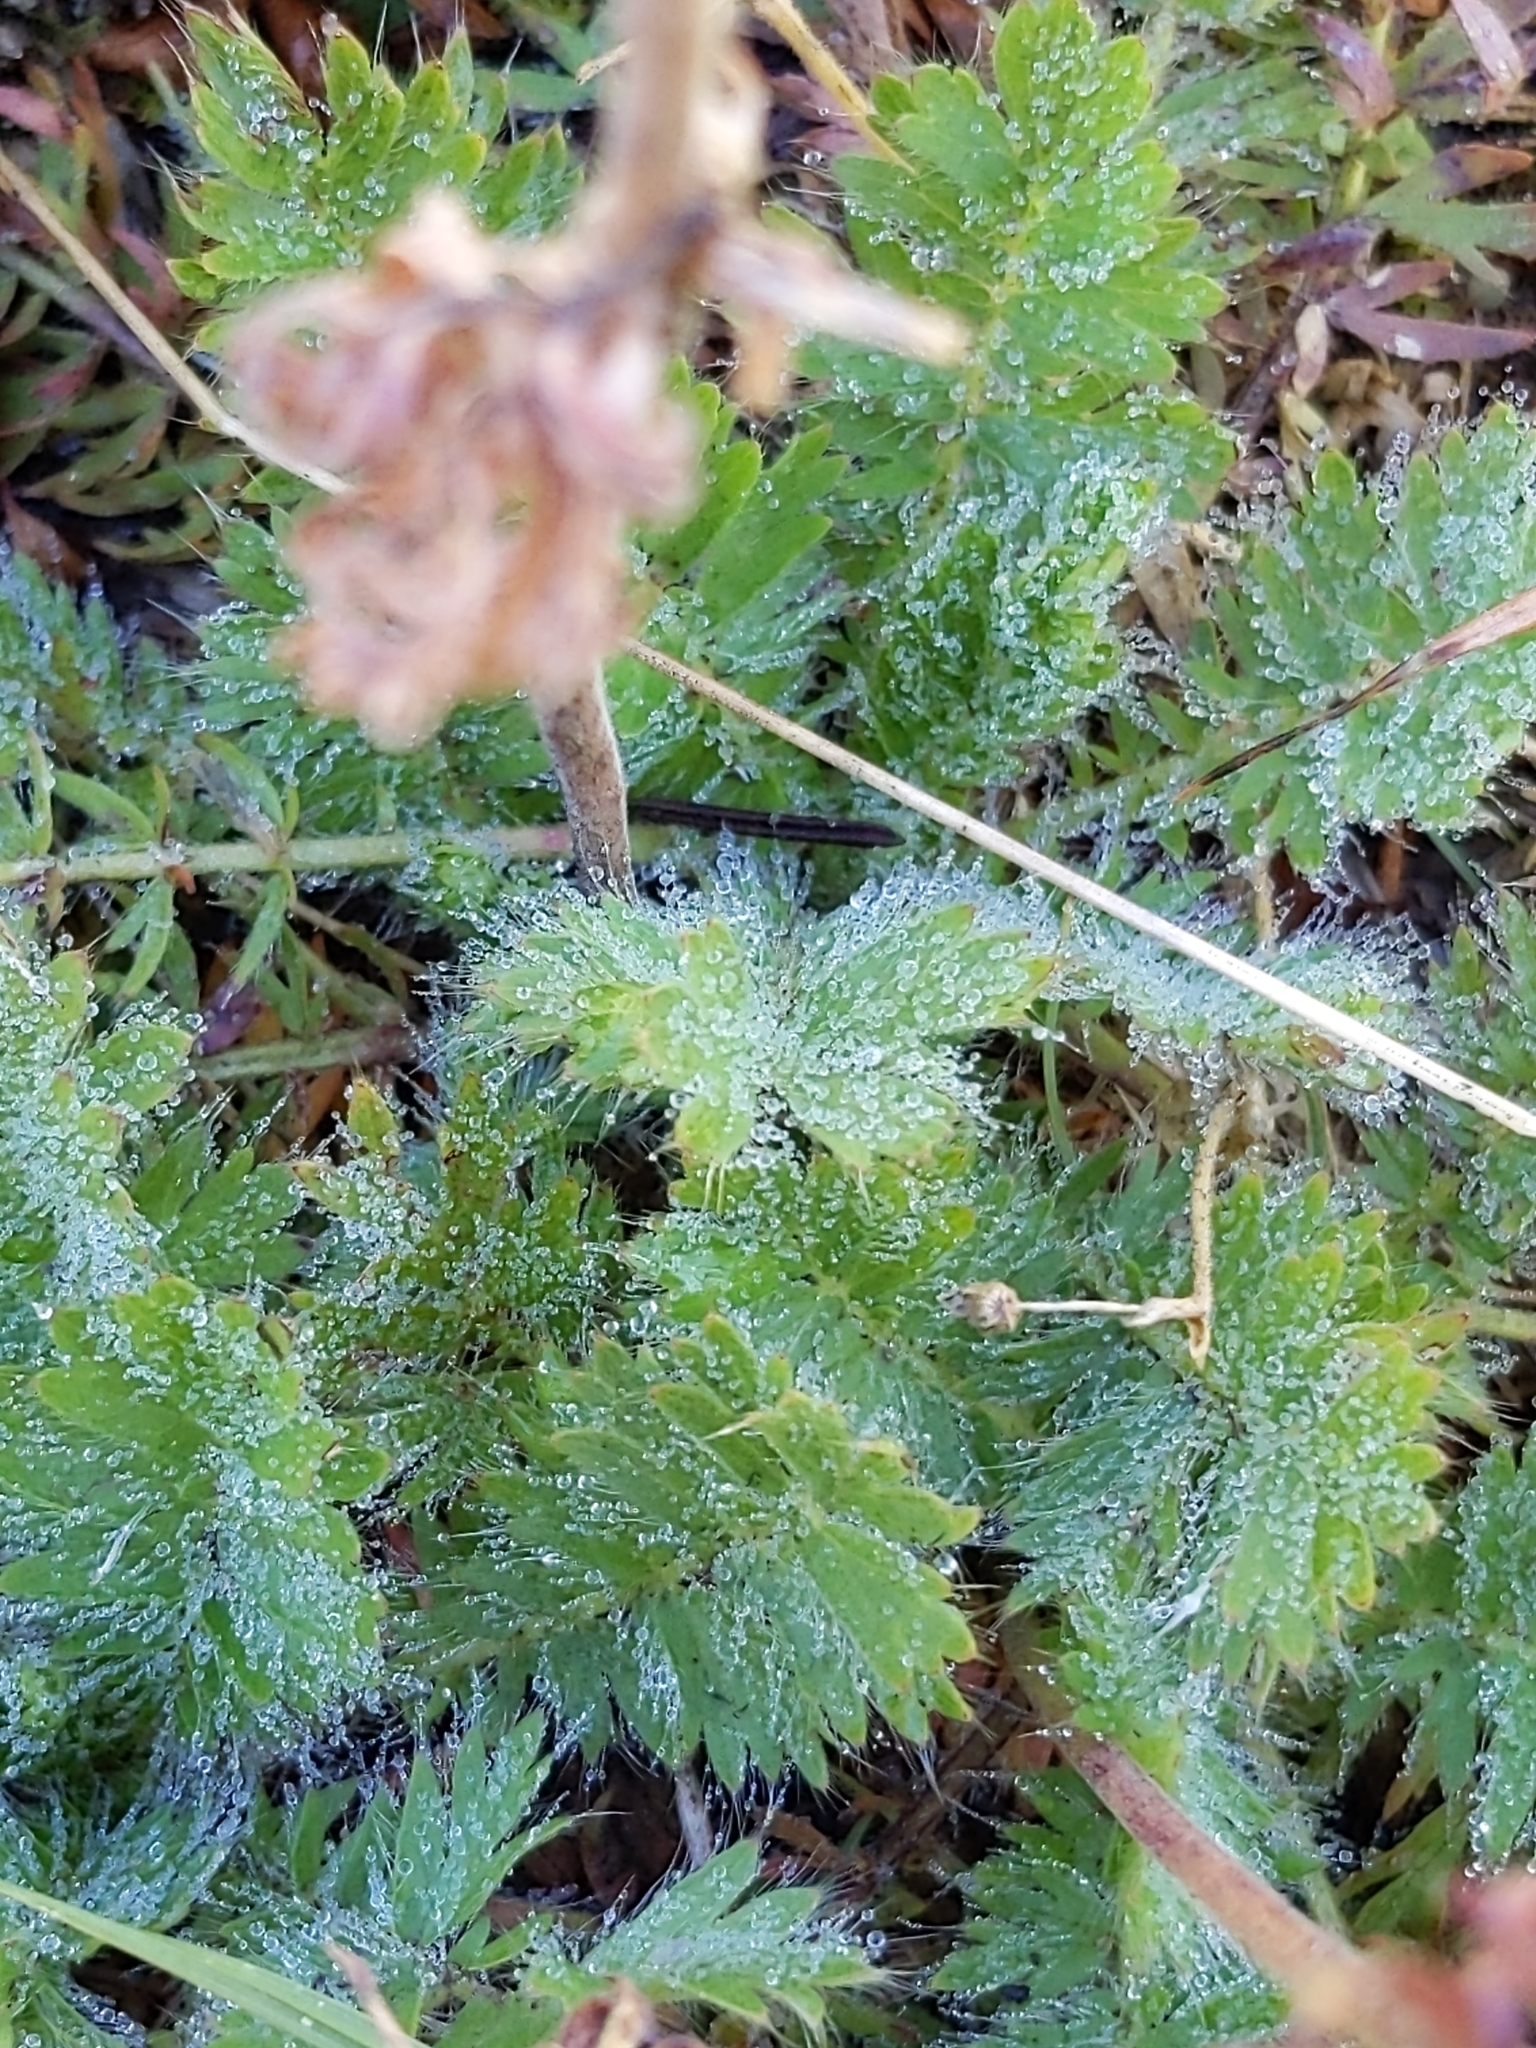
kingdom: Plantae
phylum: Tracheophyta
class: Magnoliopsida
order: Rosales
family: Rosaceae
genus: Geum
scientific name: Geum triflorum
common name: Old man's whiskers
